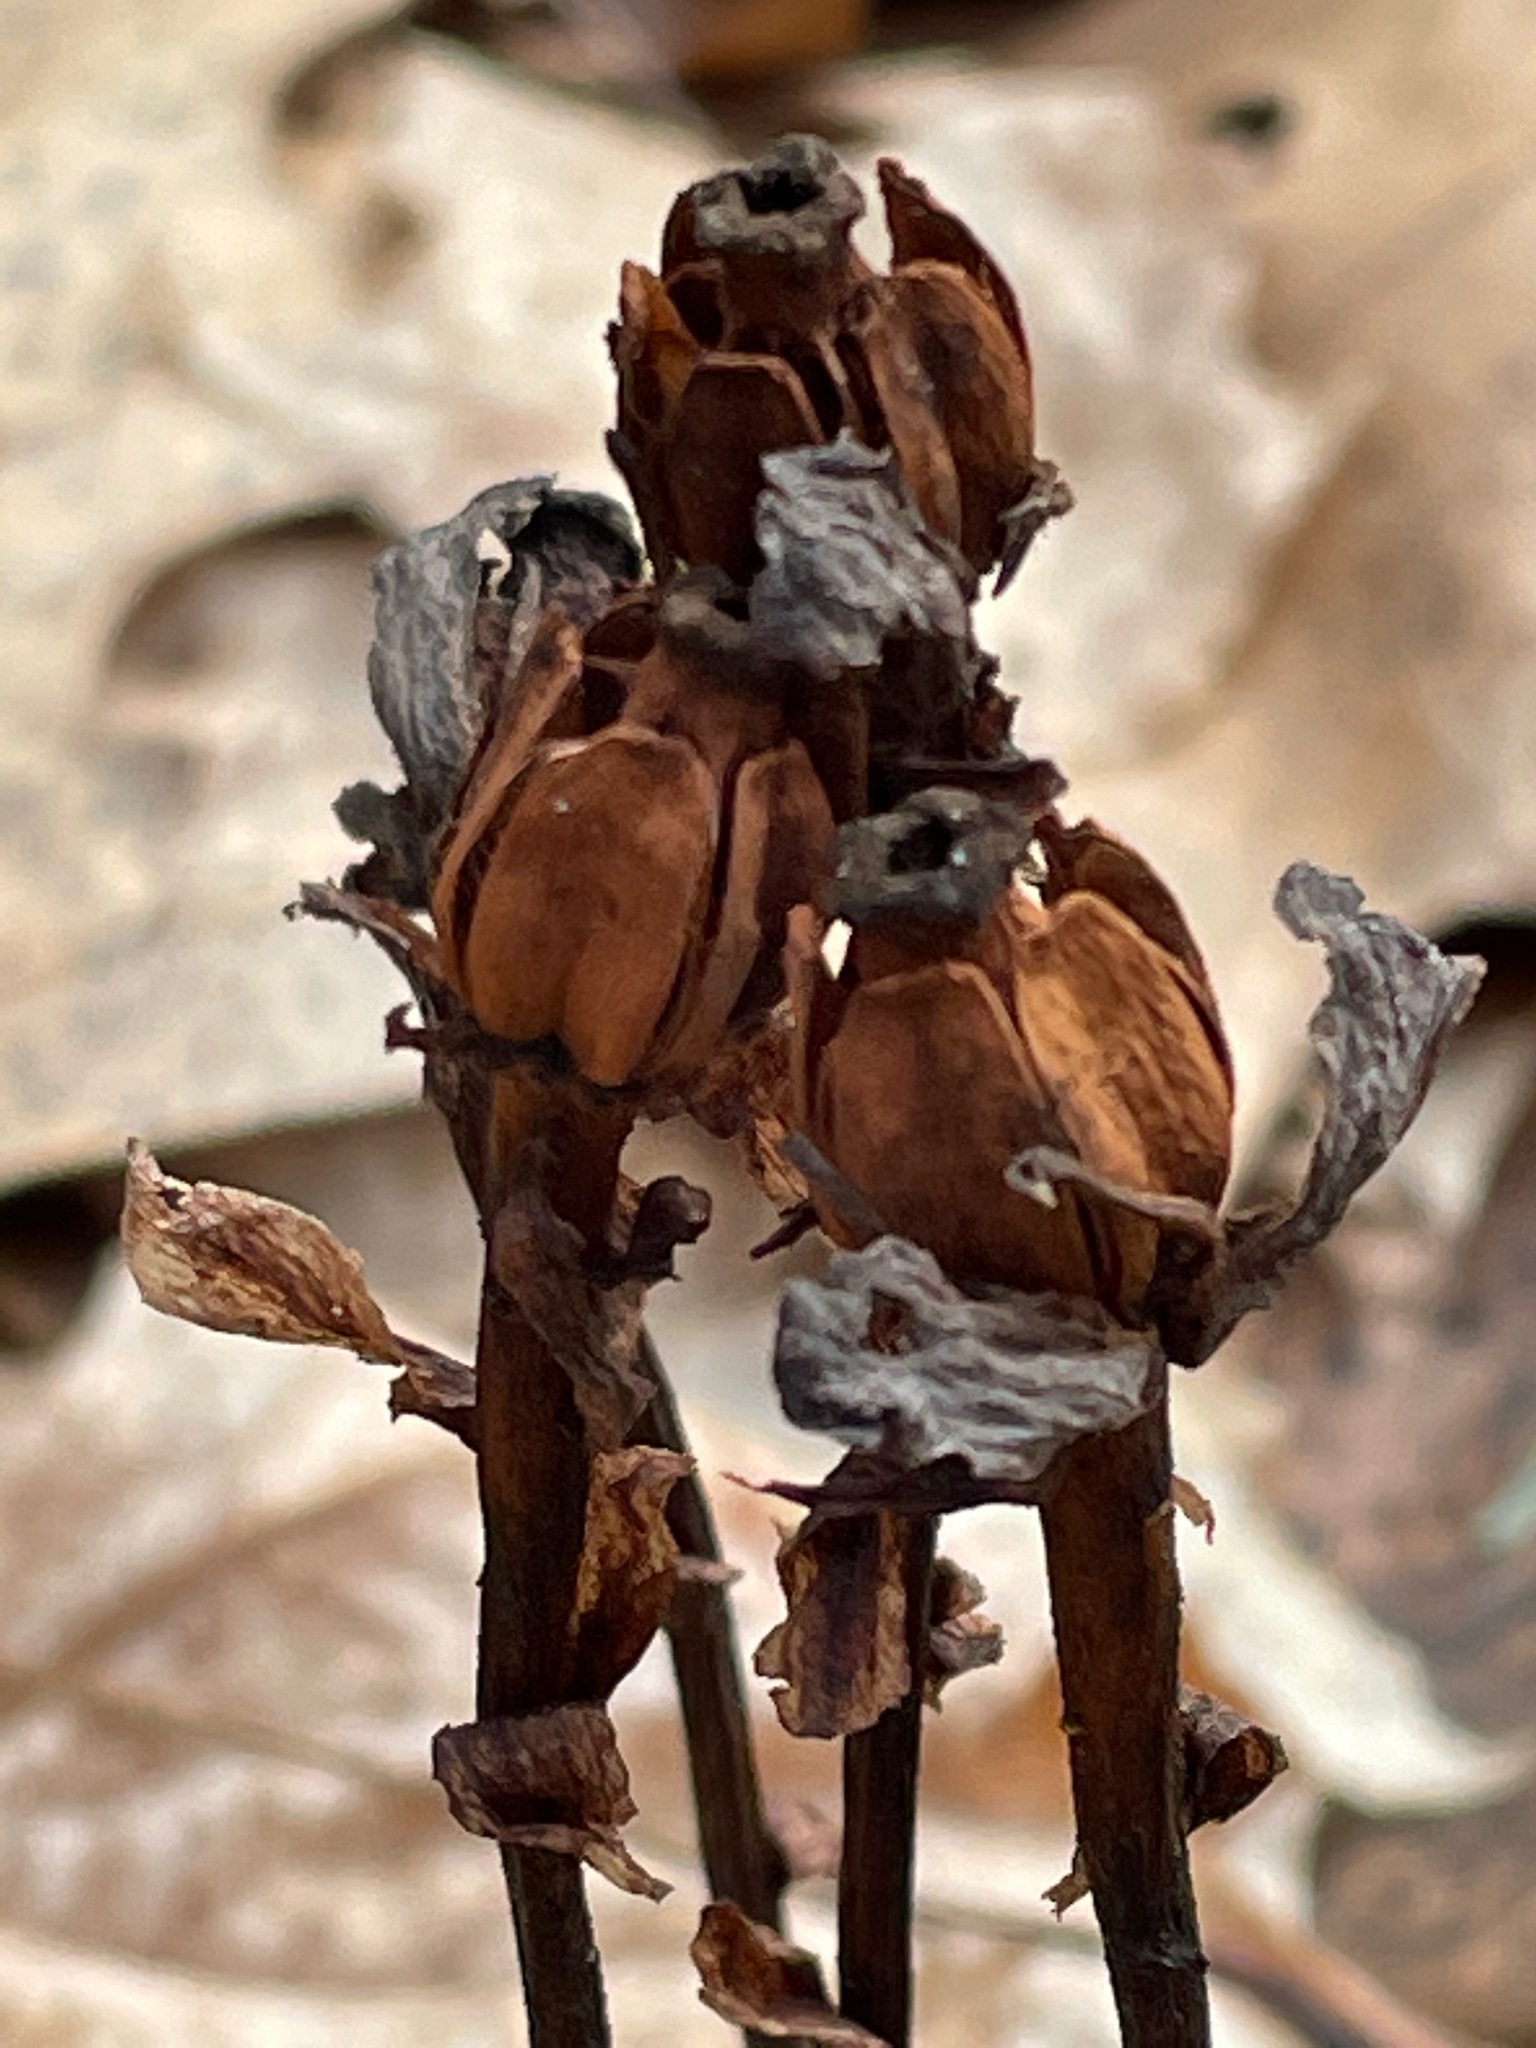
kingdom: Plantae
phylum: Tracheophyta
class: Magnoliopsida
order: Ericales
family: Ericaceae
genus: Monotropa
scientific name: Monotropa uniflora
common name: Convulsion root
